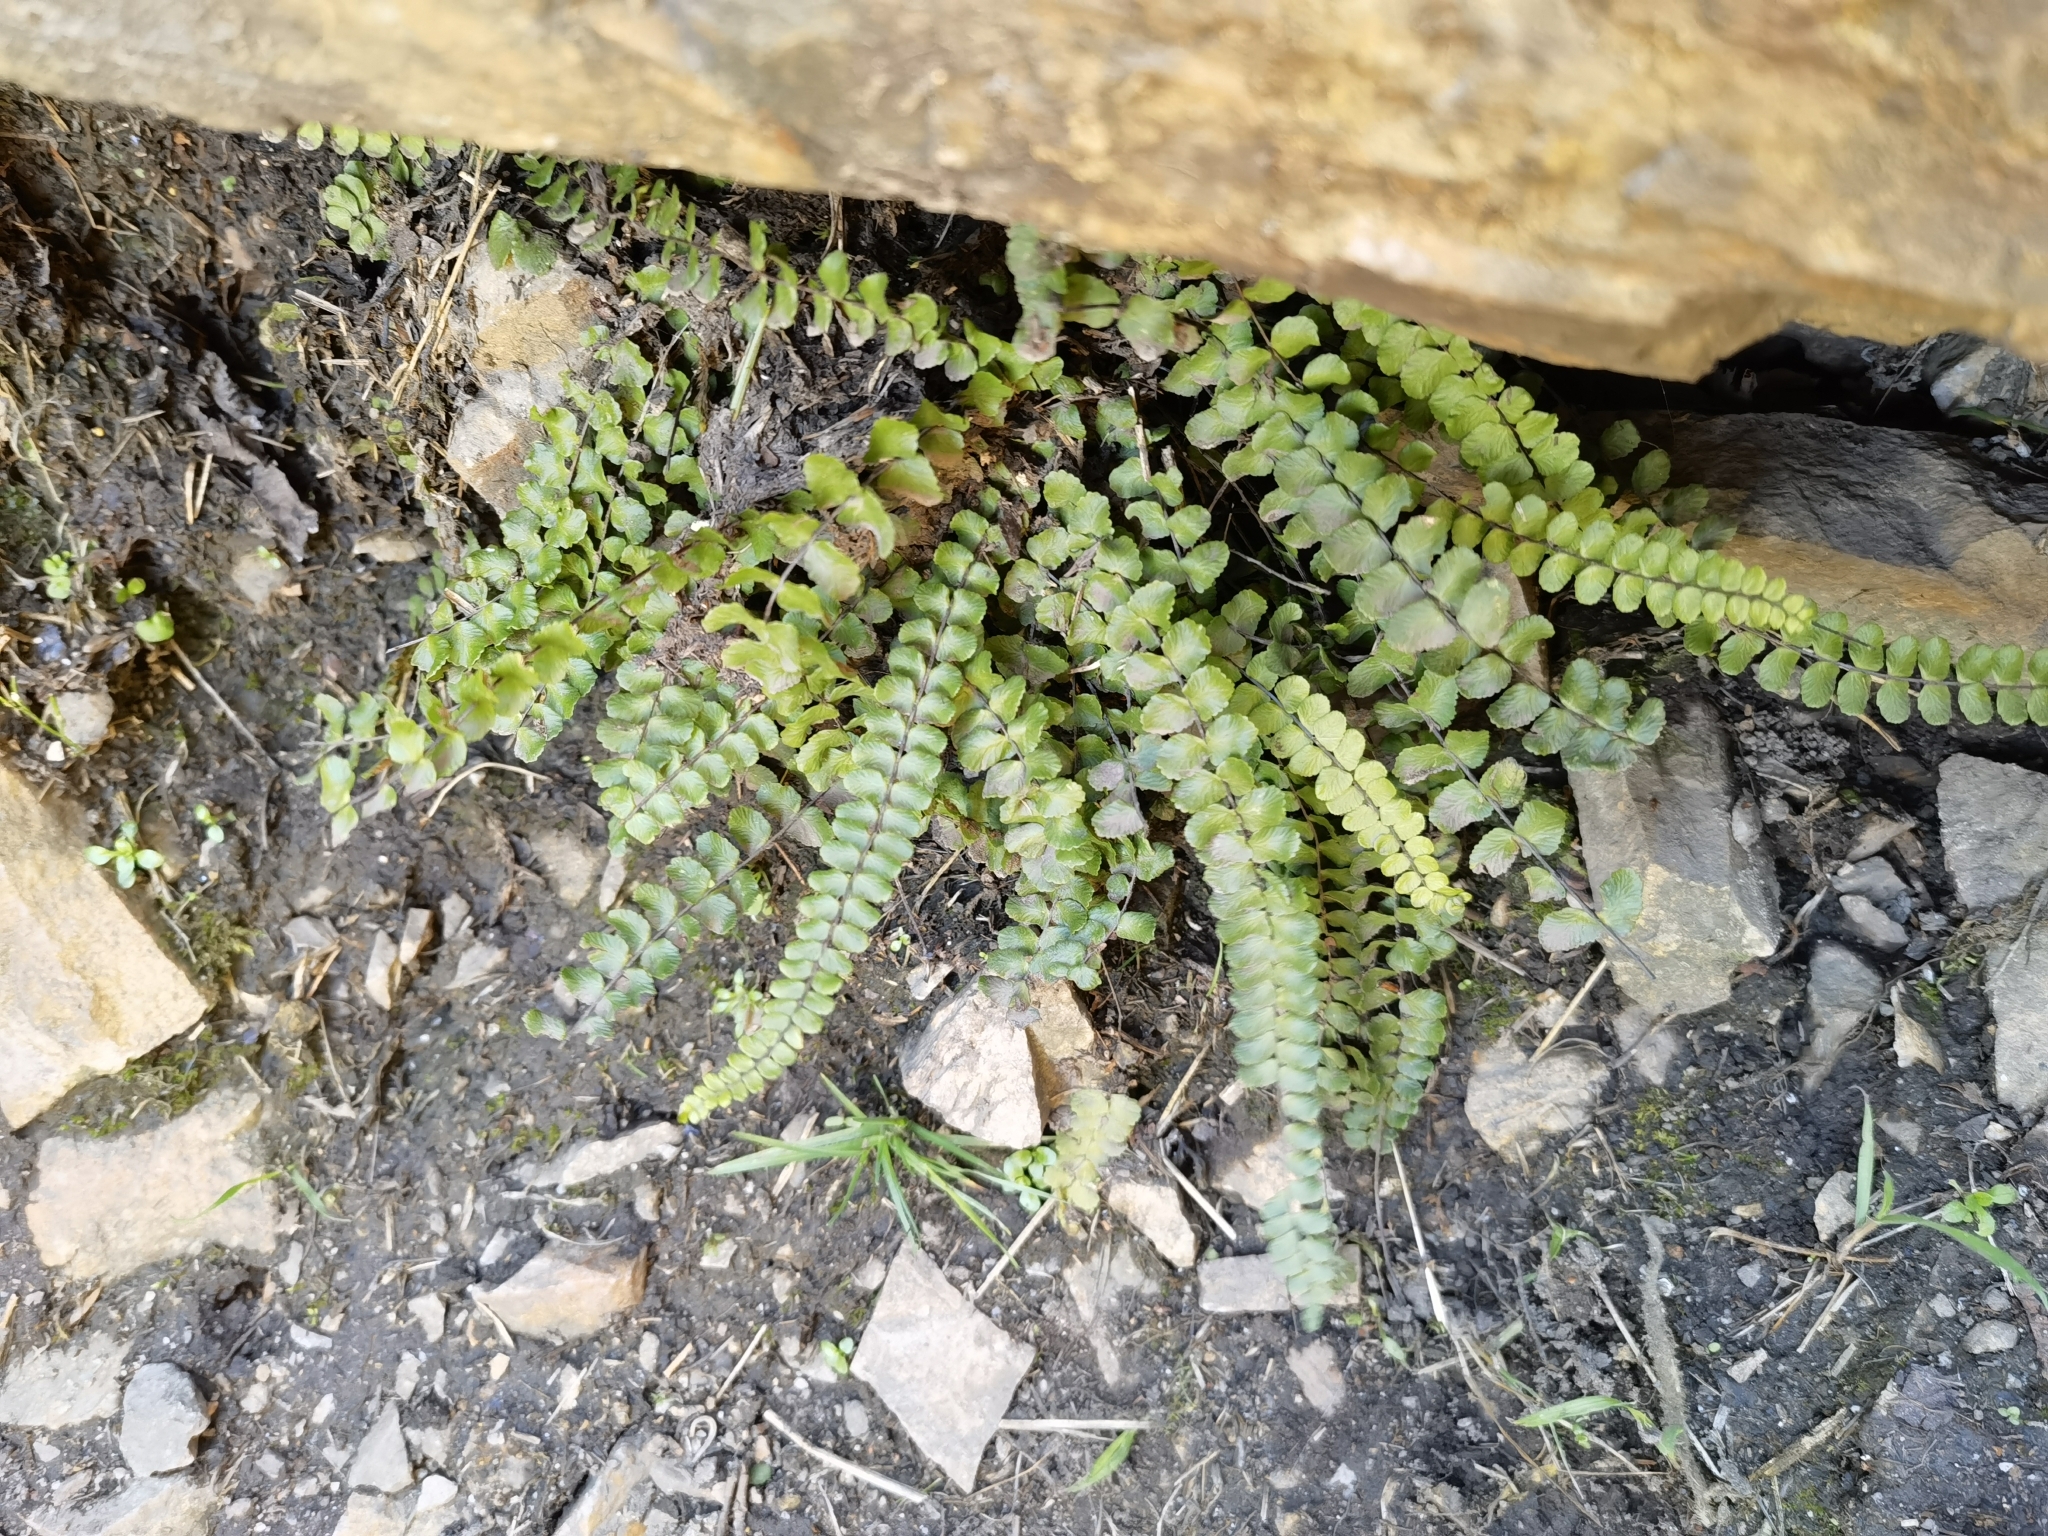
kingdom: Plantae
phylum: Tracheophyta
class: Polypodiopsida
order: Polypodiales
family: Aspleniaceae
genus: Asplenium
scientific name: Asplenium trichomanes
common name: Maidenhair spleenwort
